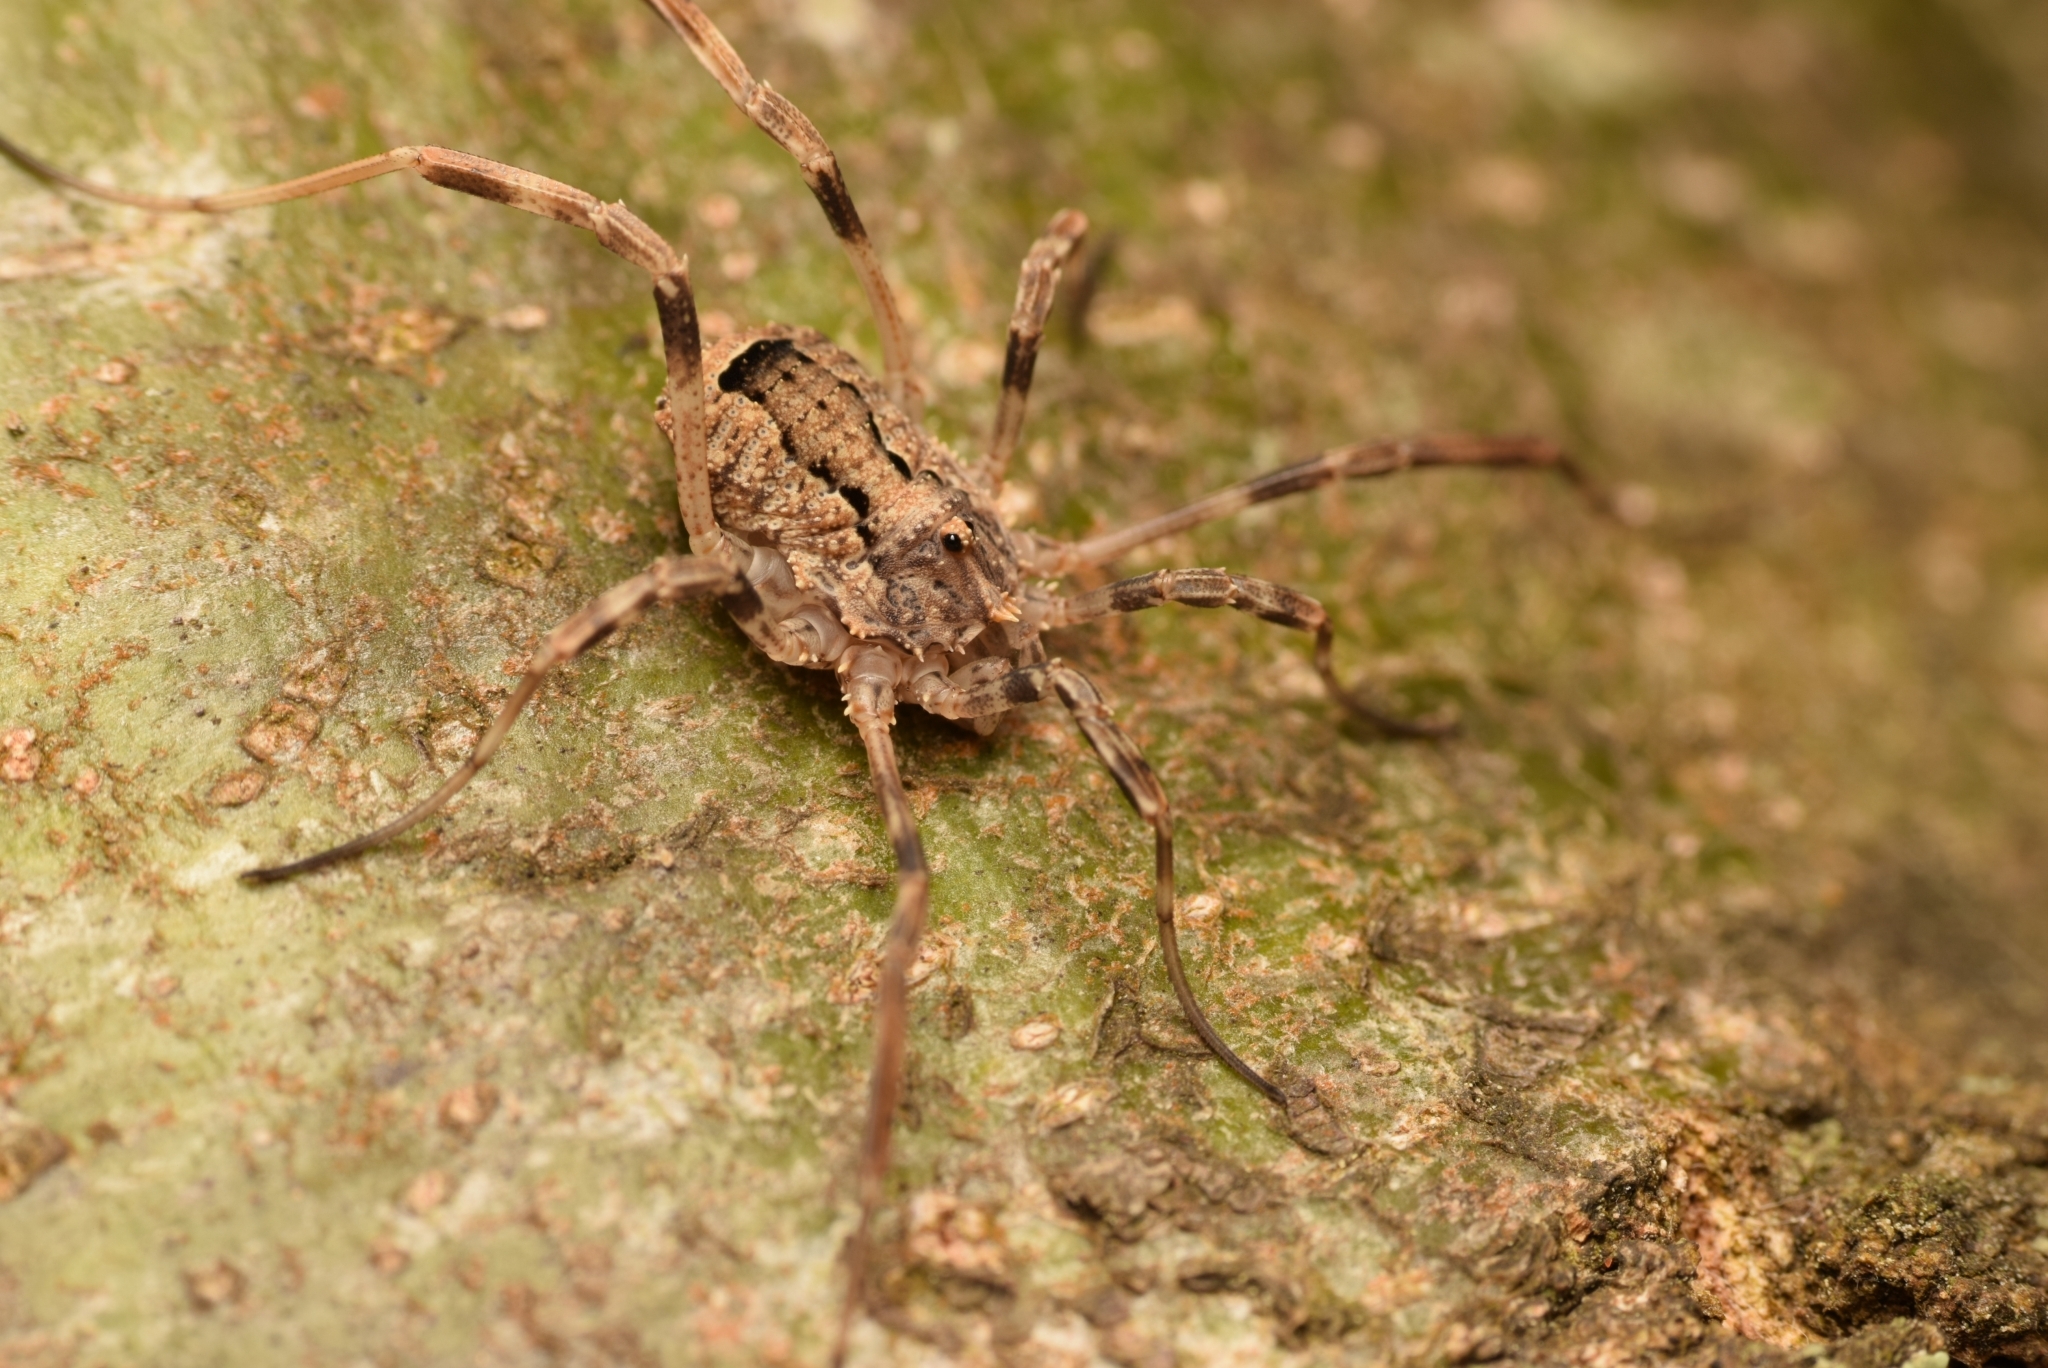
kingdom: Animalia
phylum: Arthropoda
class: Arachnida
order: Opiliones
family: Phalangiidae
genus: Odiellus
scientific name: Odiellus spinosus
